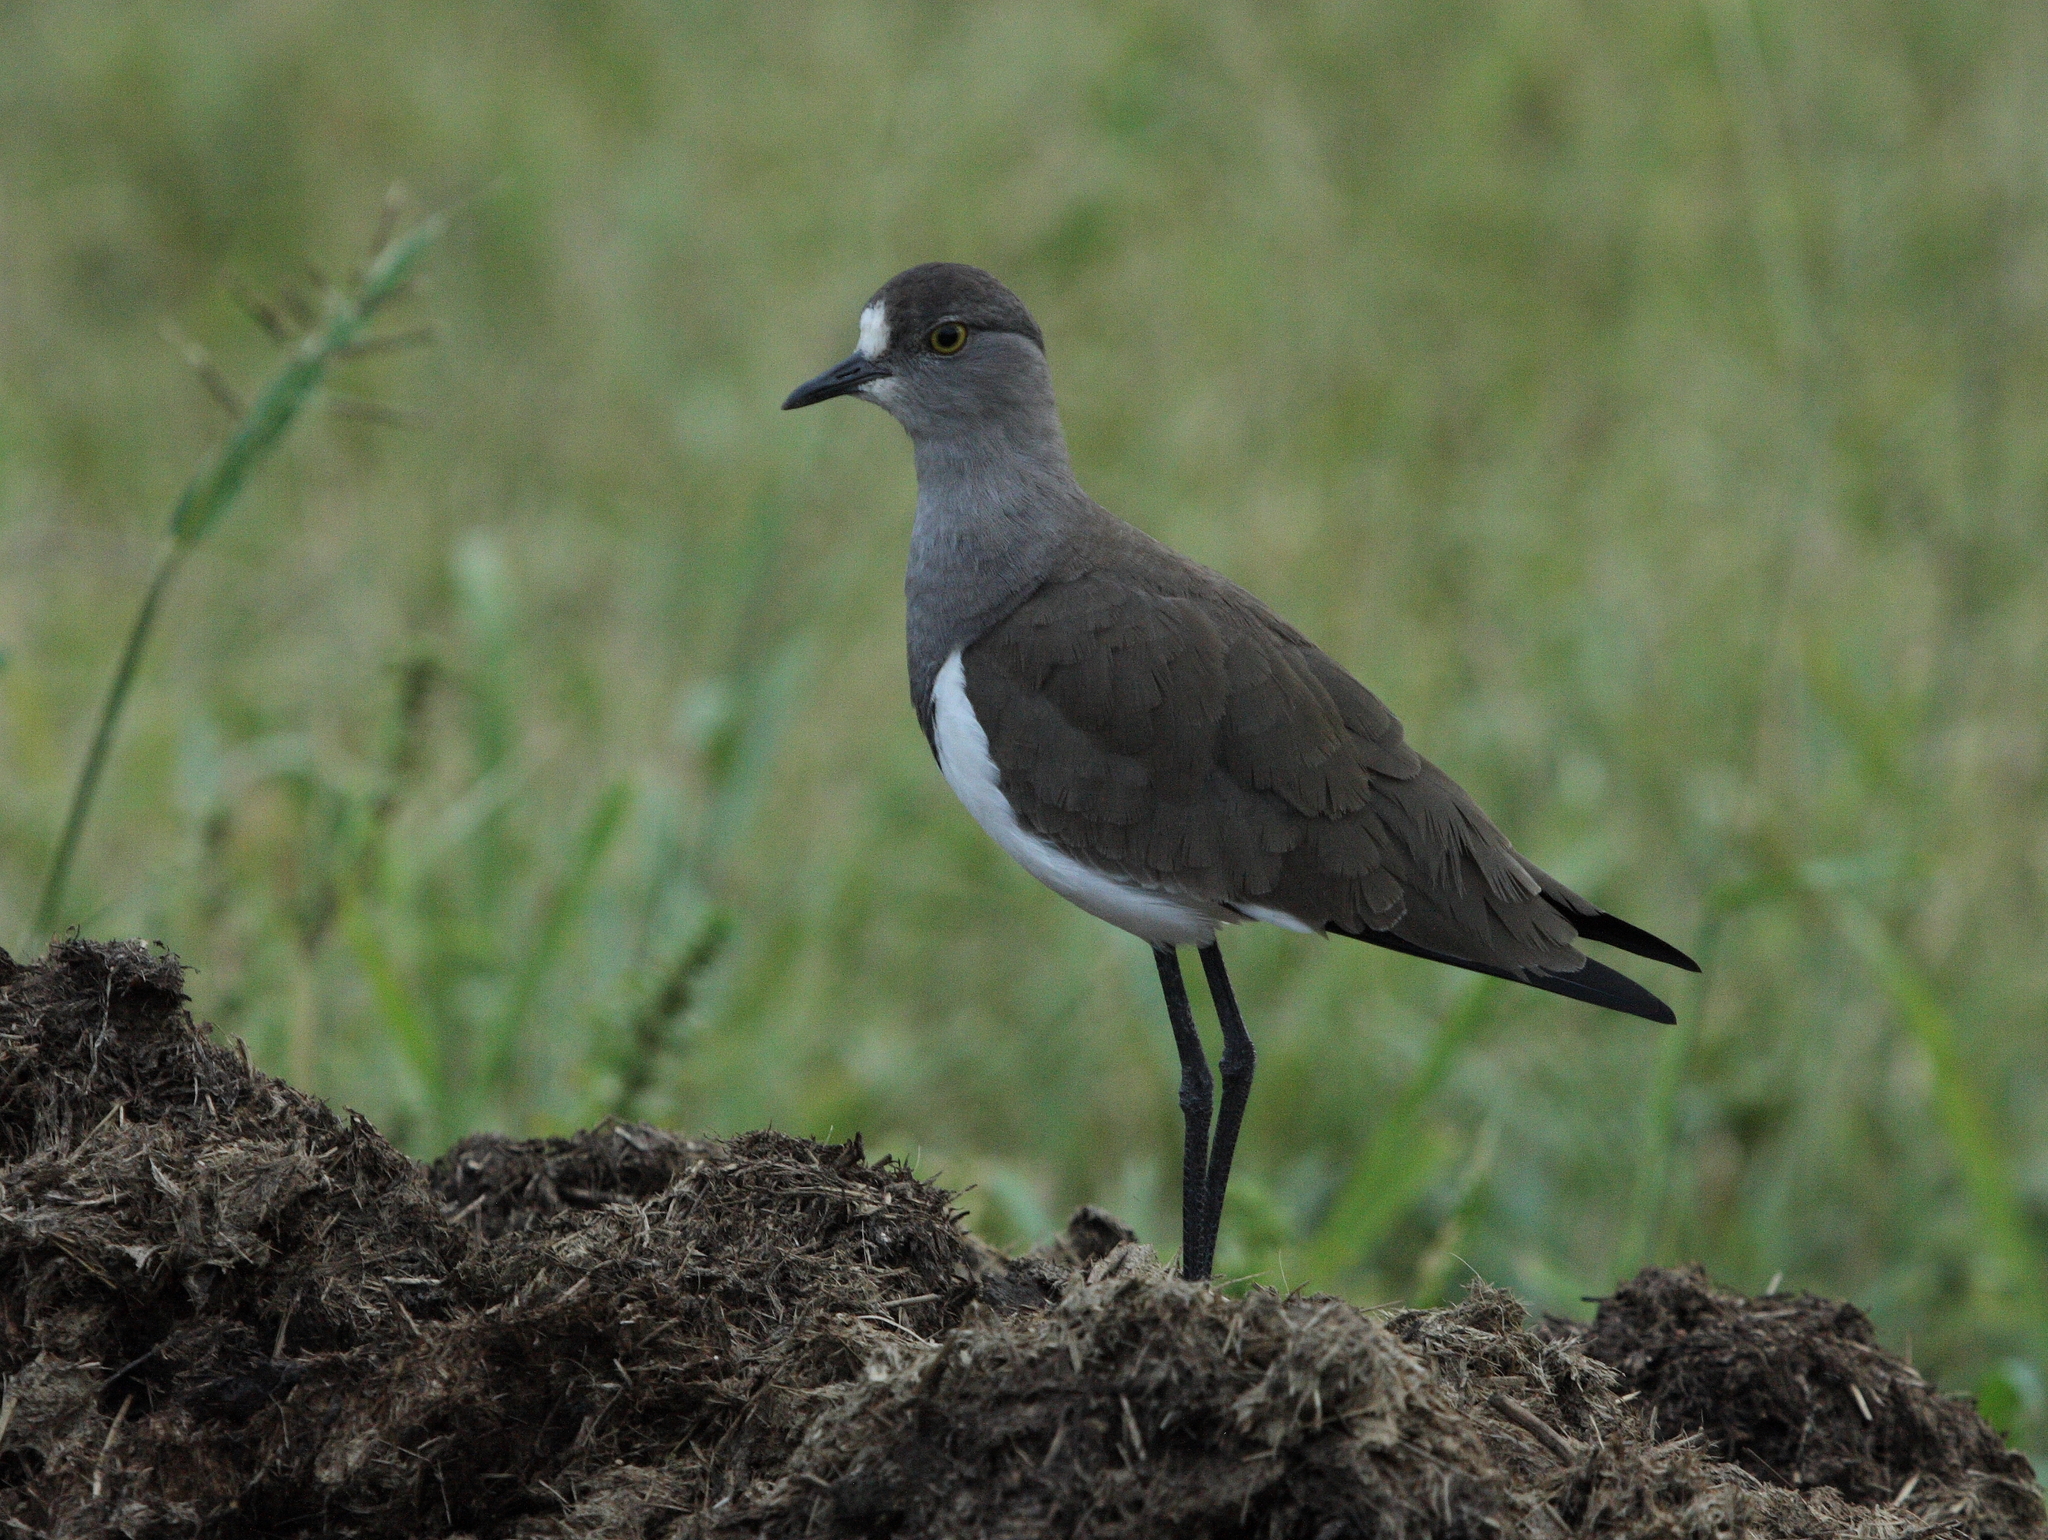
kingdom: Animalia
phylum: Chordata
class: Aves
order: Charadriiformes
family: Charadriidae
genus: Vanellus
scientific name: Vanellus lugubris
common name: Senegal lapwing
